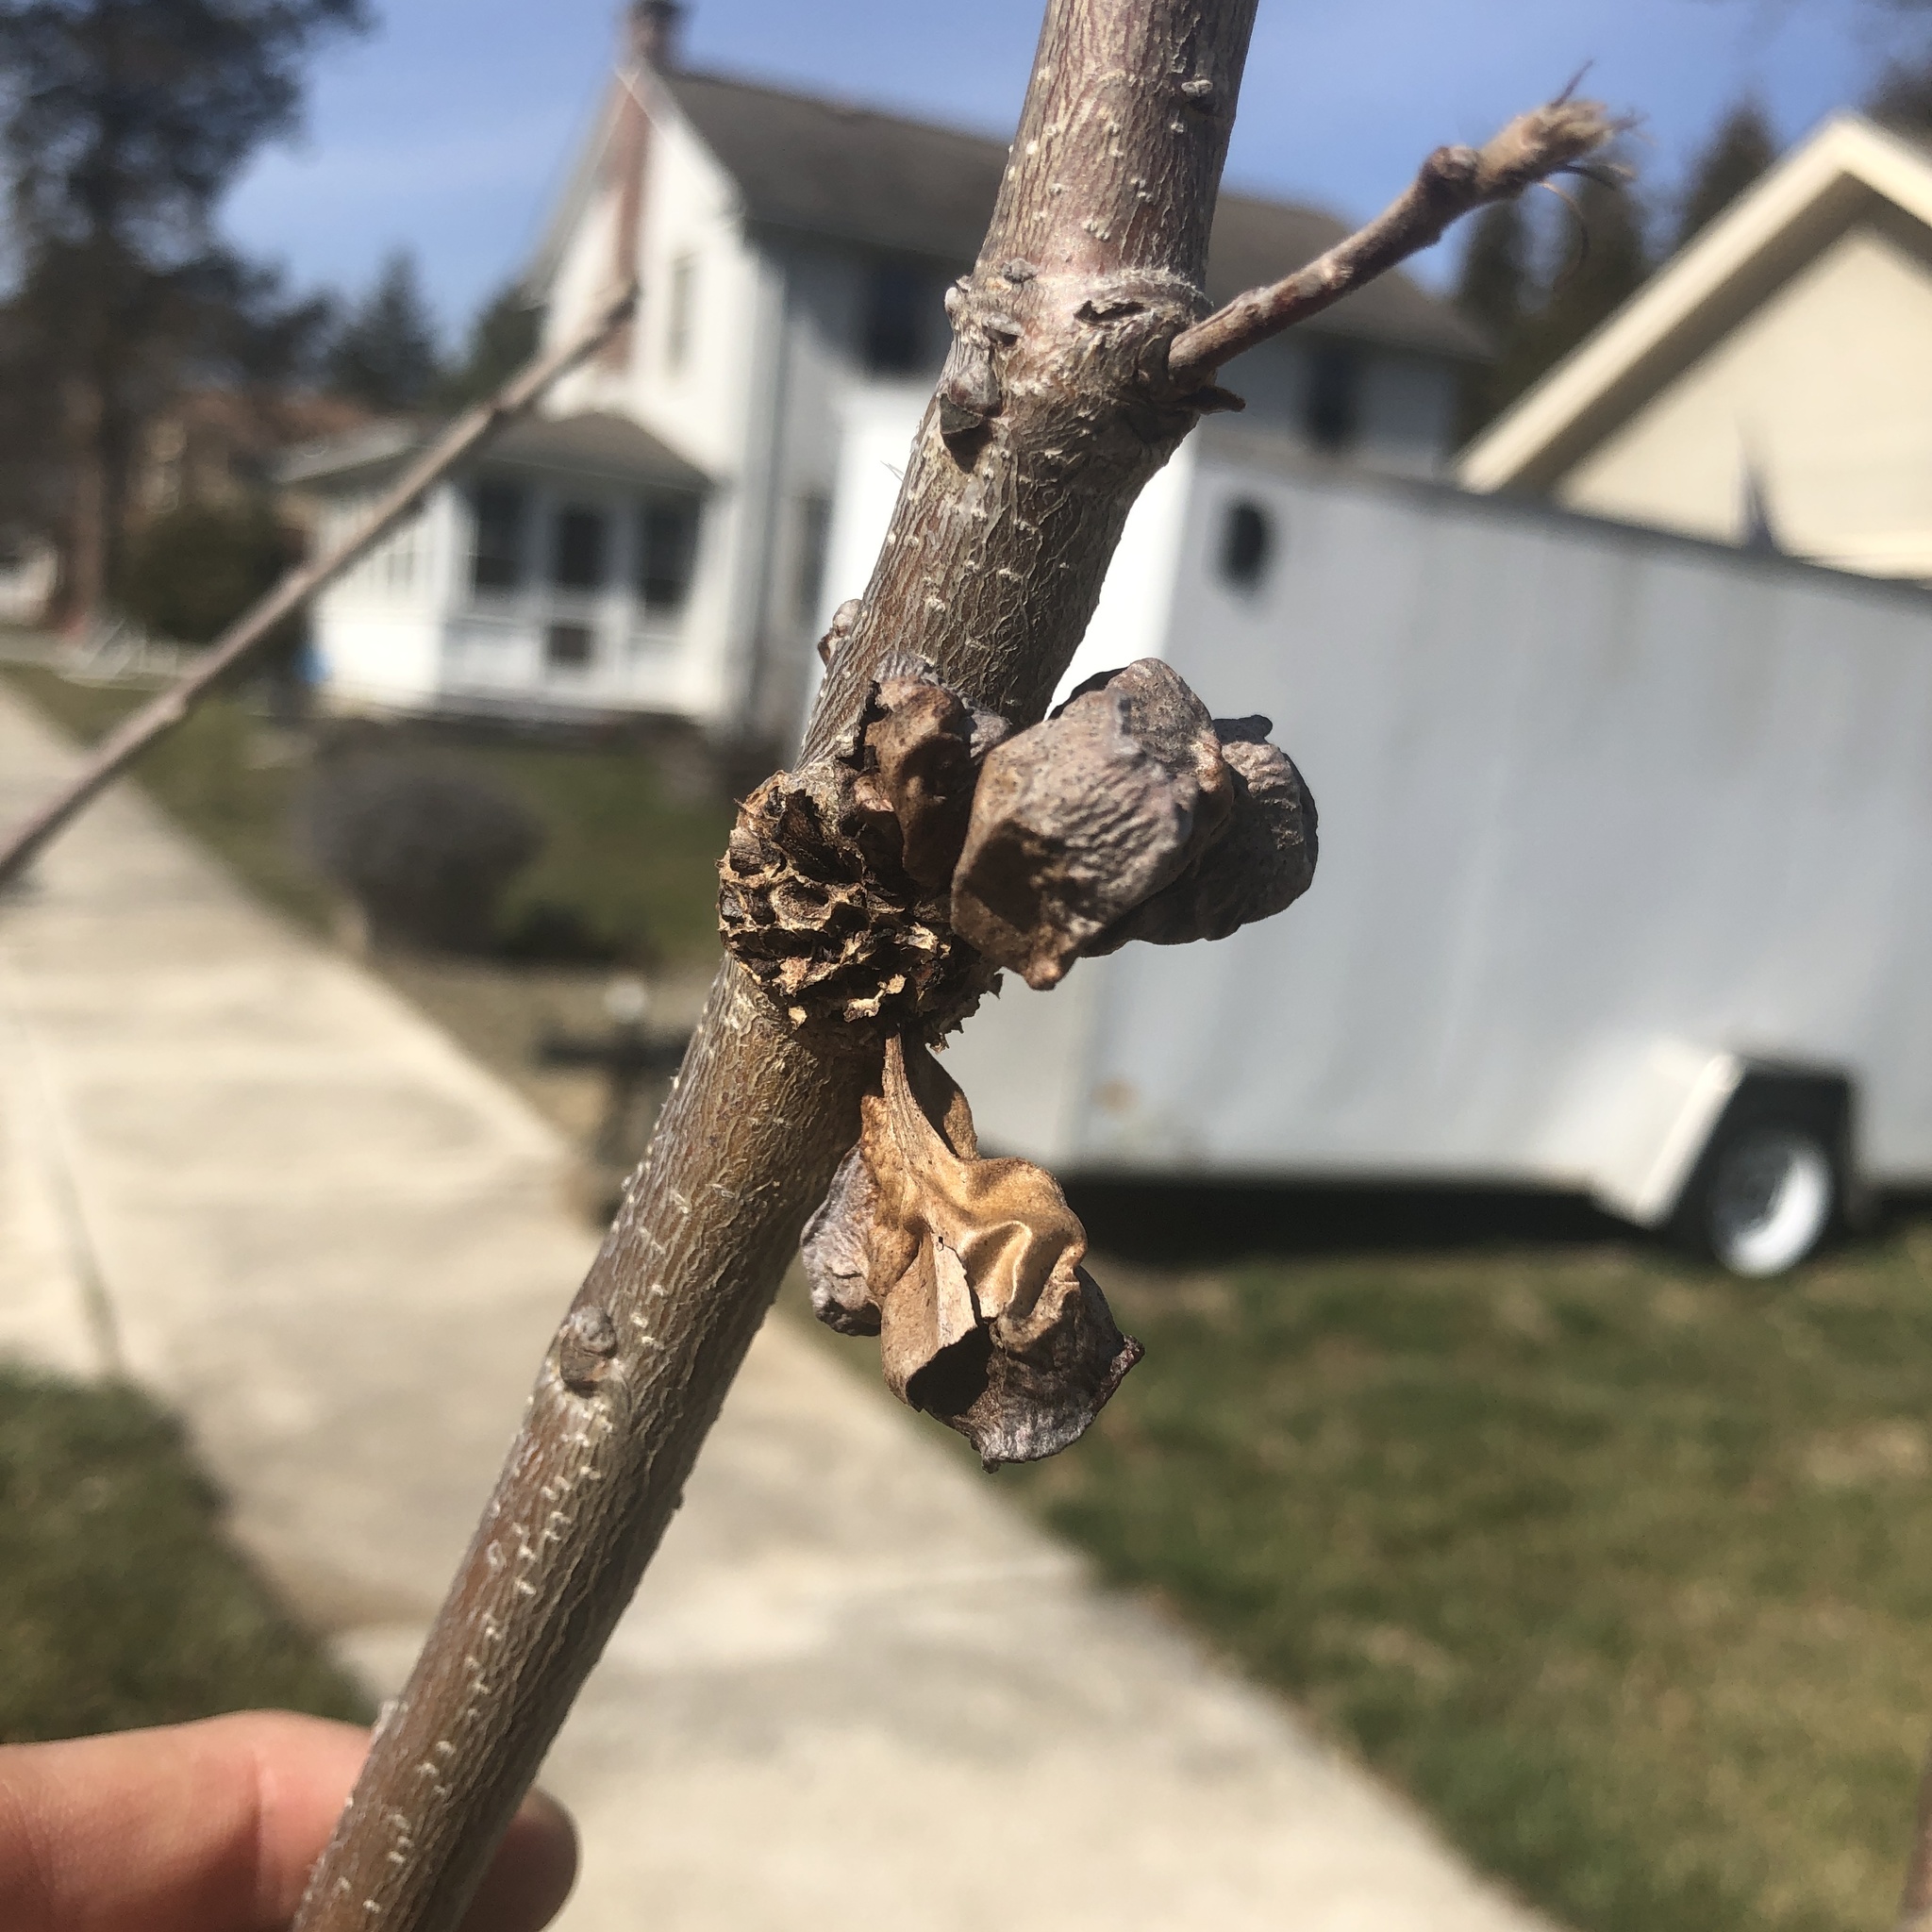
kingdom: Animalia
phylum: Arthropoda
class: Insecta
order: Hymenoptera
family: Cynipidae
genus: Andricus
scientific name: Andricus
